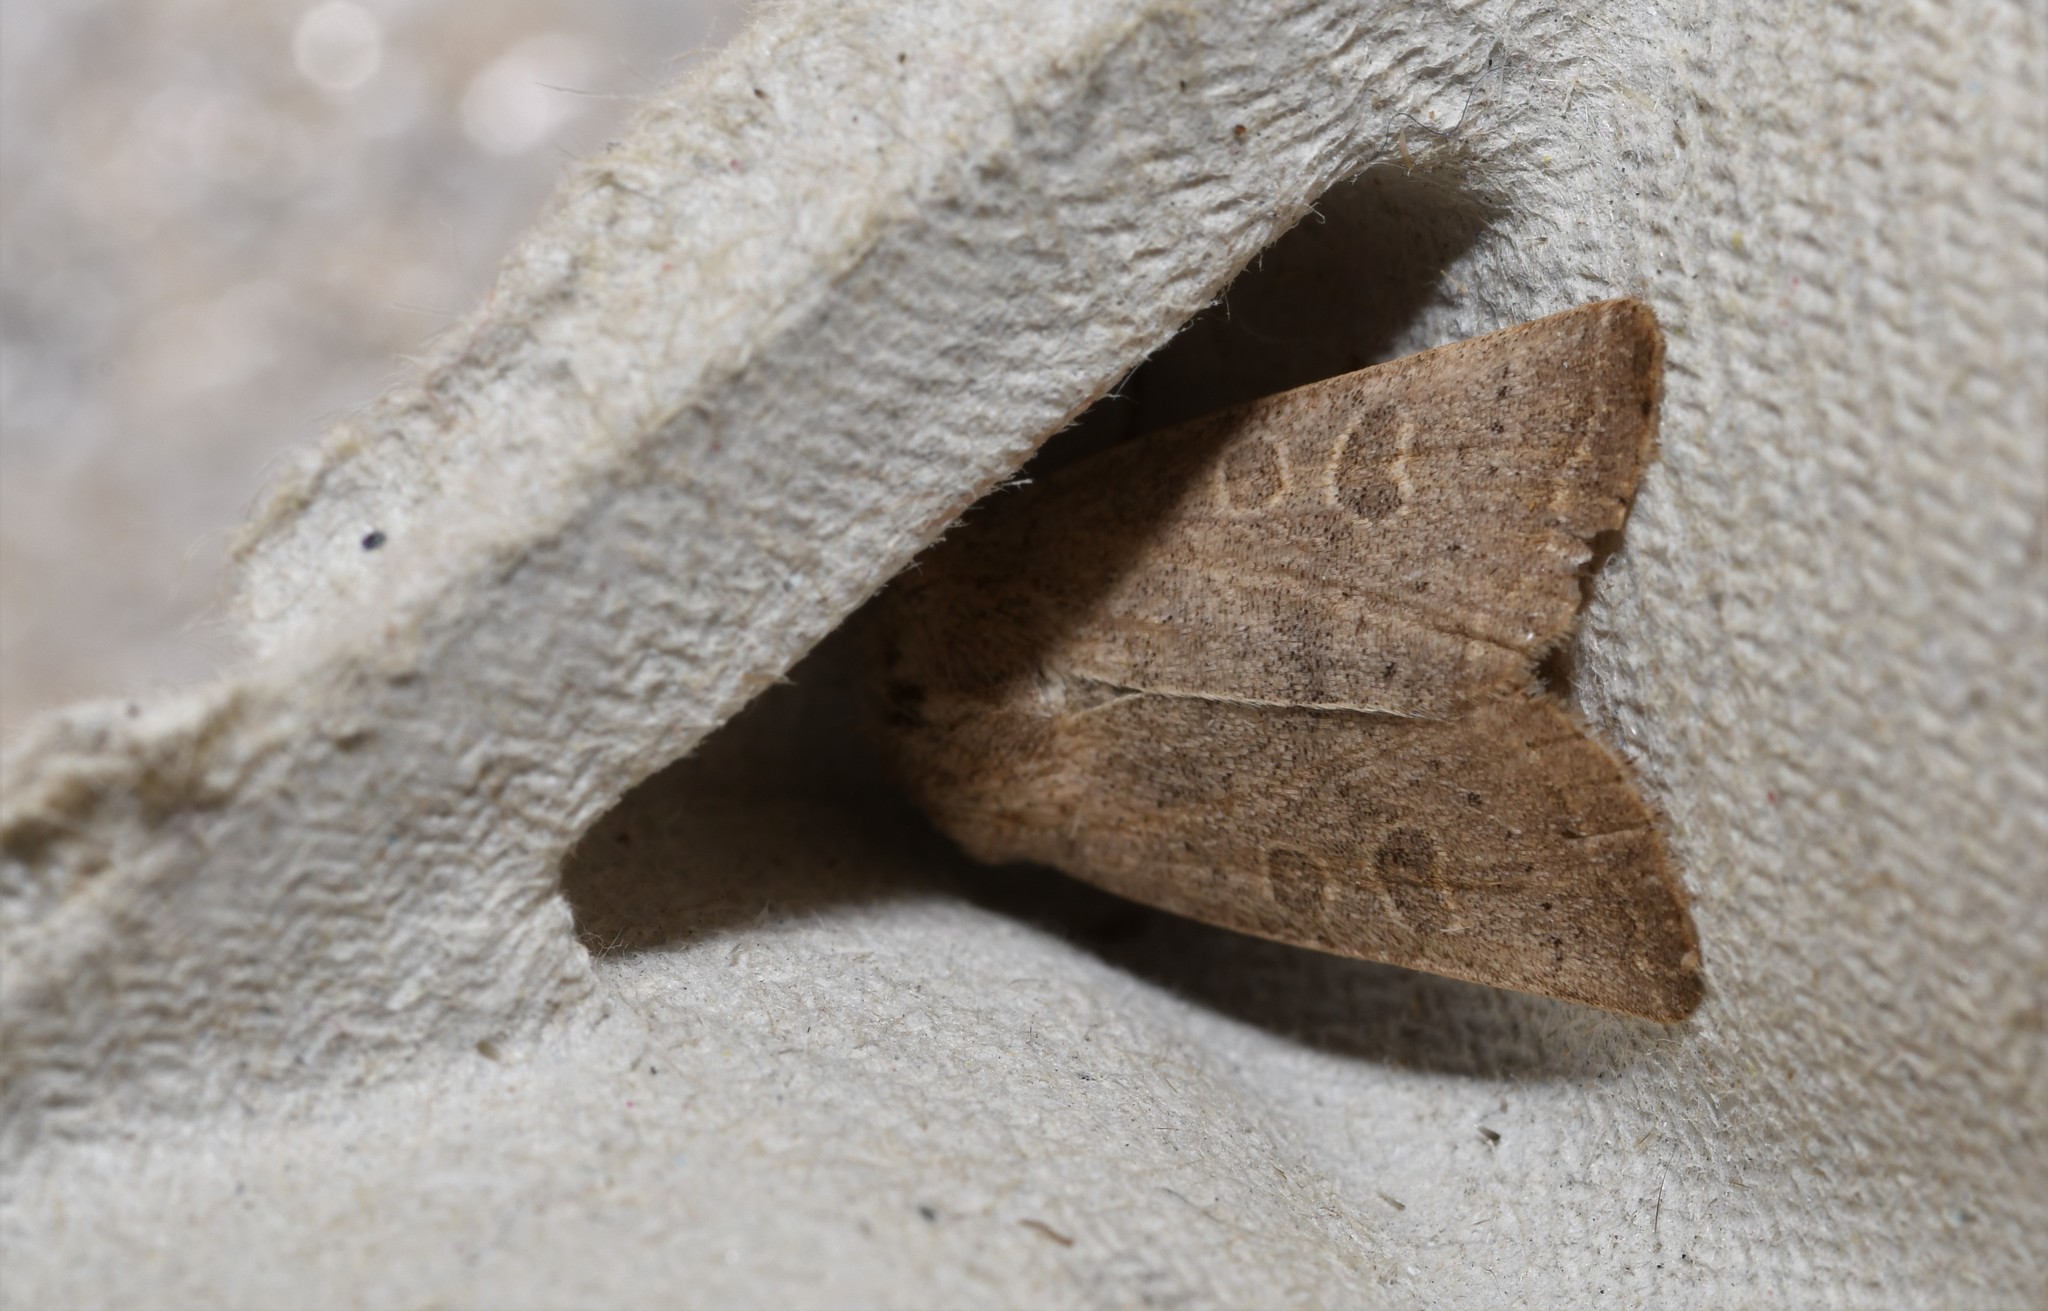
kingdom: Animalia
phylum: Arthropoda
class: Insecta
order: Lepidoptera
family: Noctuidae
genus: Hoplodrina
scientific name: Hoplodrina ambigua
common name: Vine's rustic
